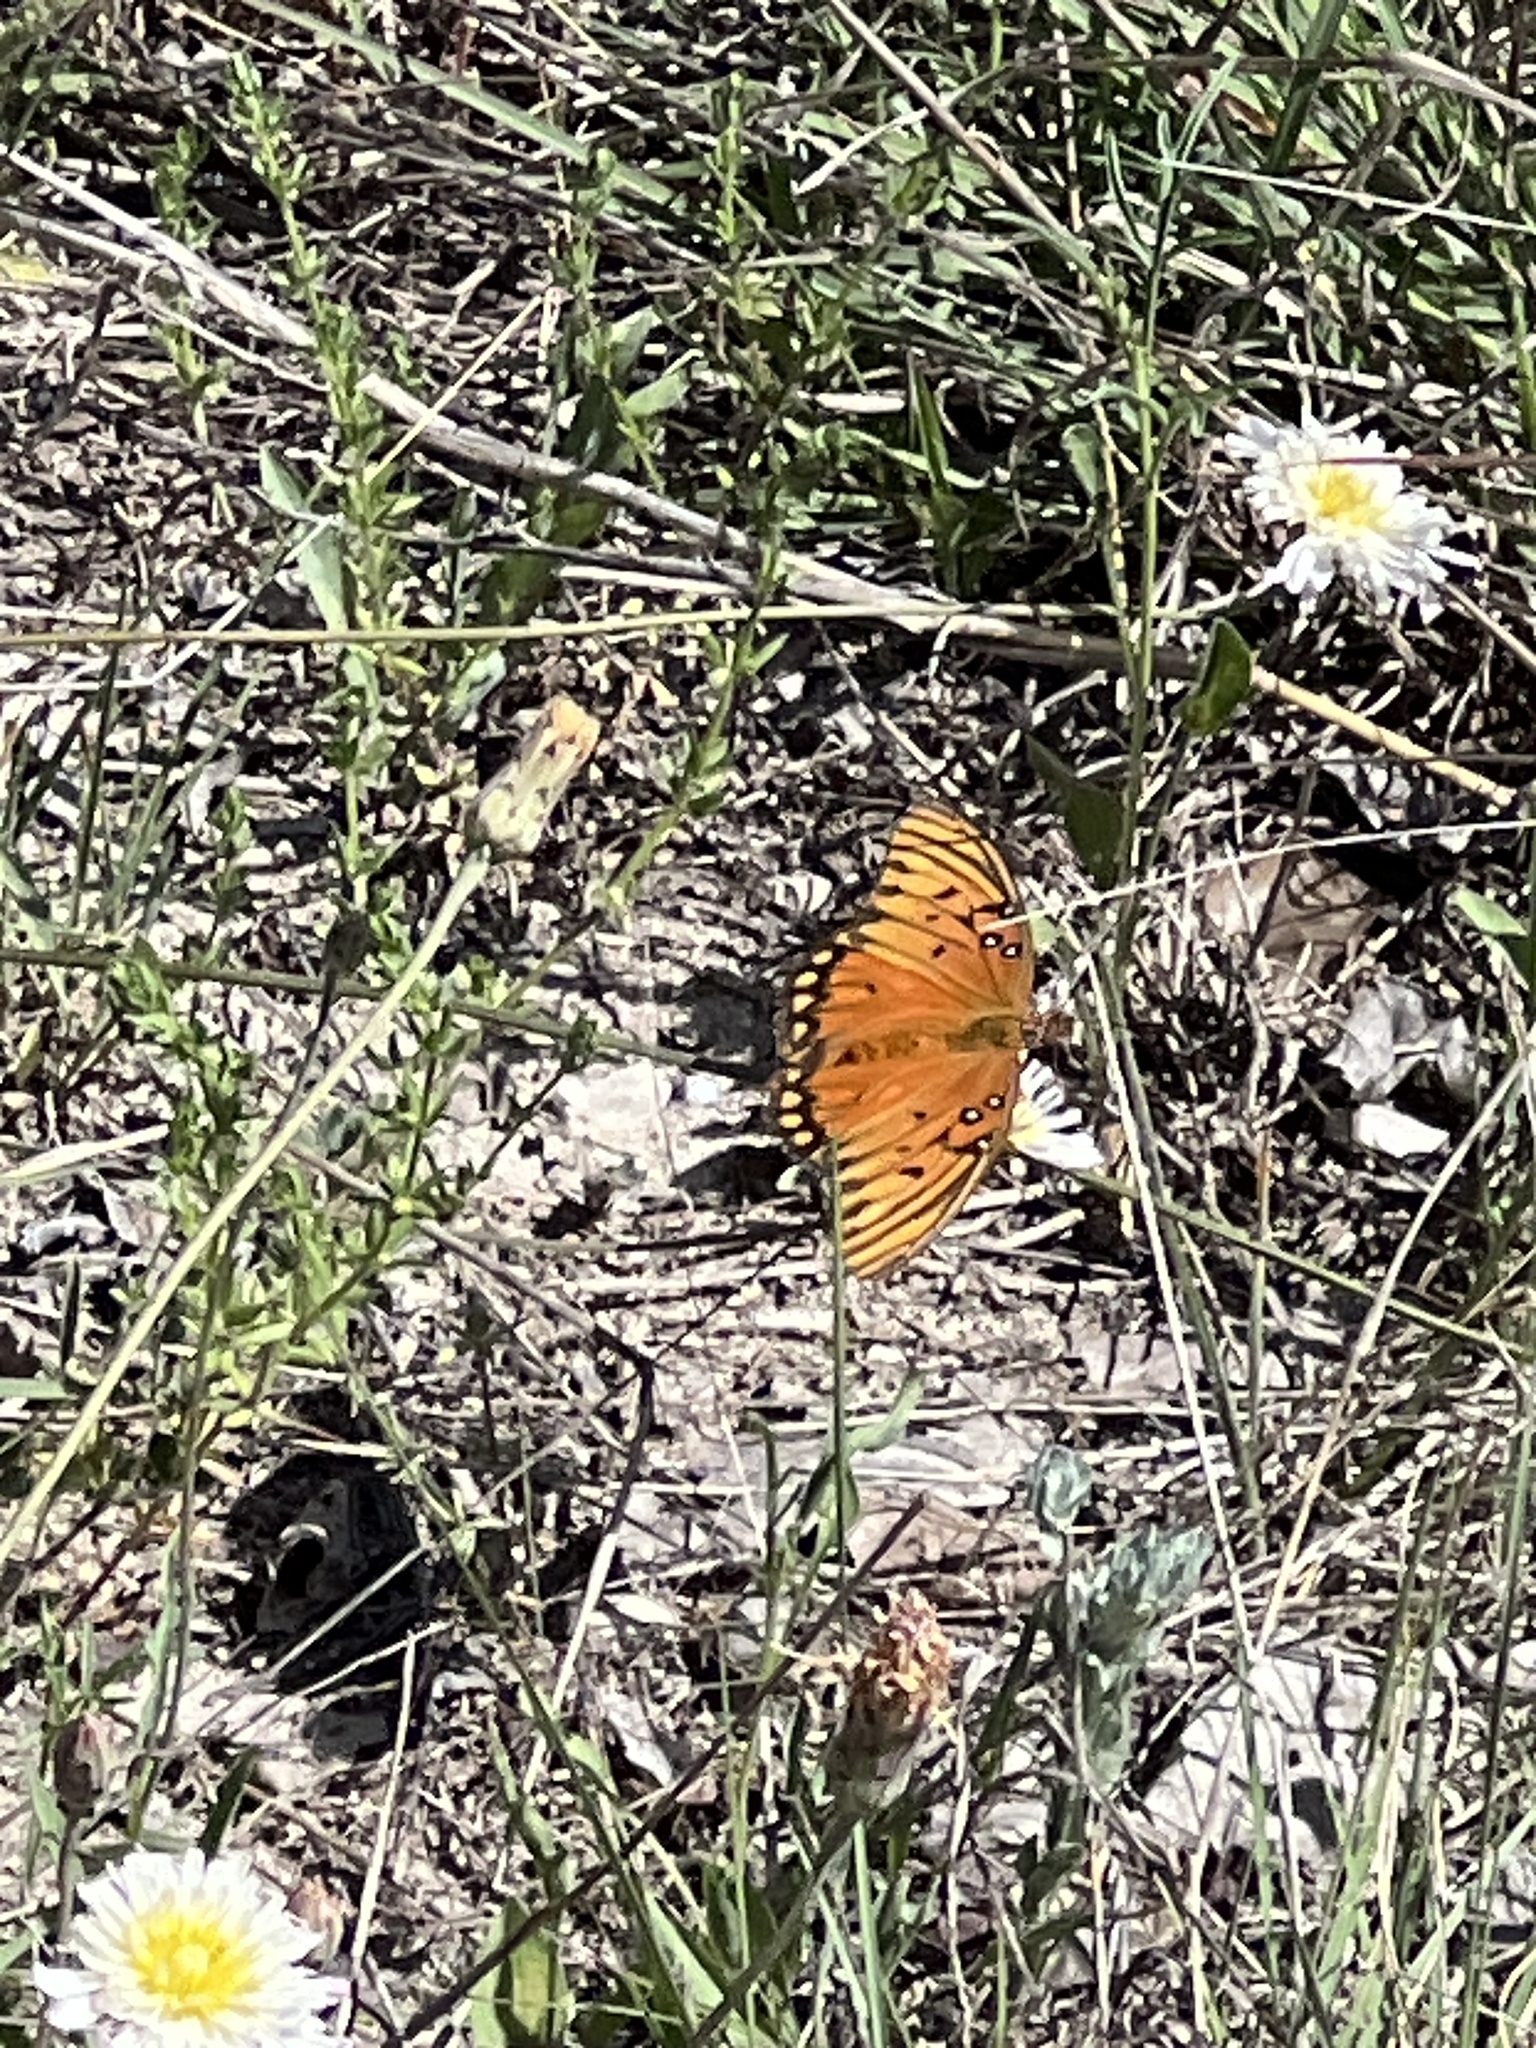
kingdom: Animalia
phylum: Arthropoda
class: Insecta
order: Lepidoptera
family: Nymphalidae
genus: Dione
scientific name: Dione vanillae
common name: Gulf fritillary
